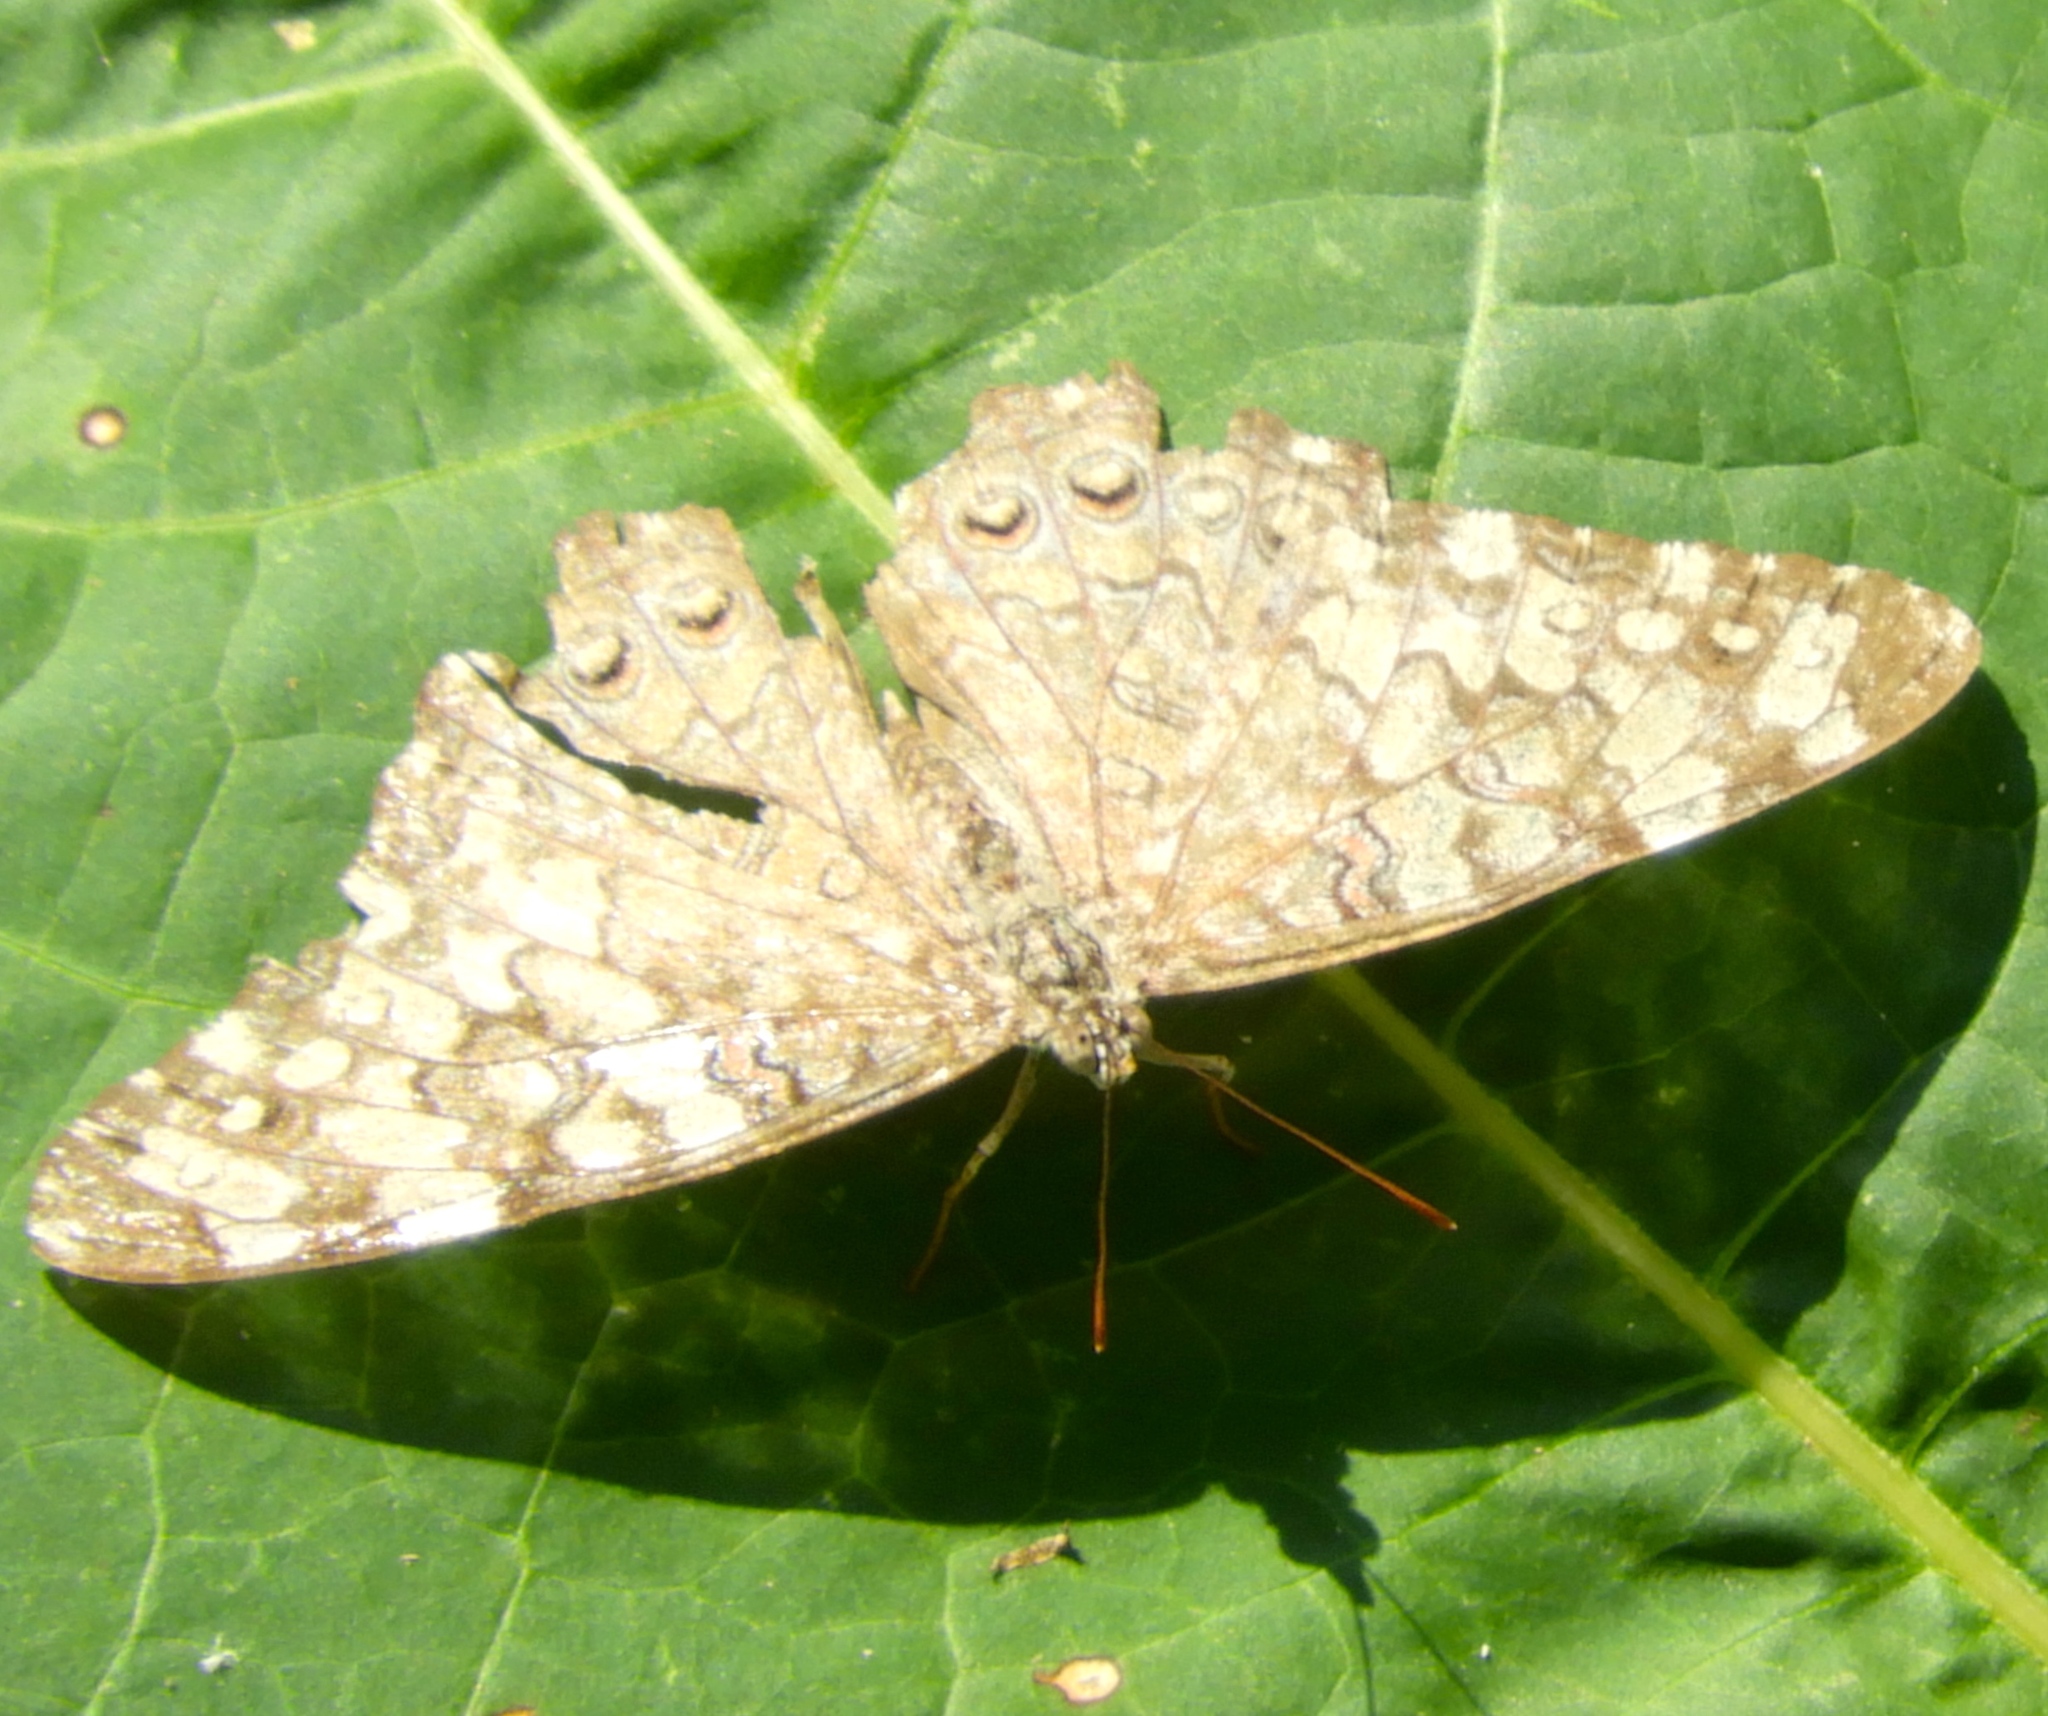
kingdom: Animalia
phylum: Arthropoda
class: Insecta
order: Lepidoptera
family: Nymphalidae
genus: Hamadryas
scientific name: Hamadryas februa
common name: Gray cracker
